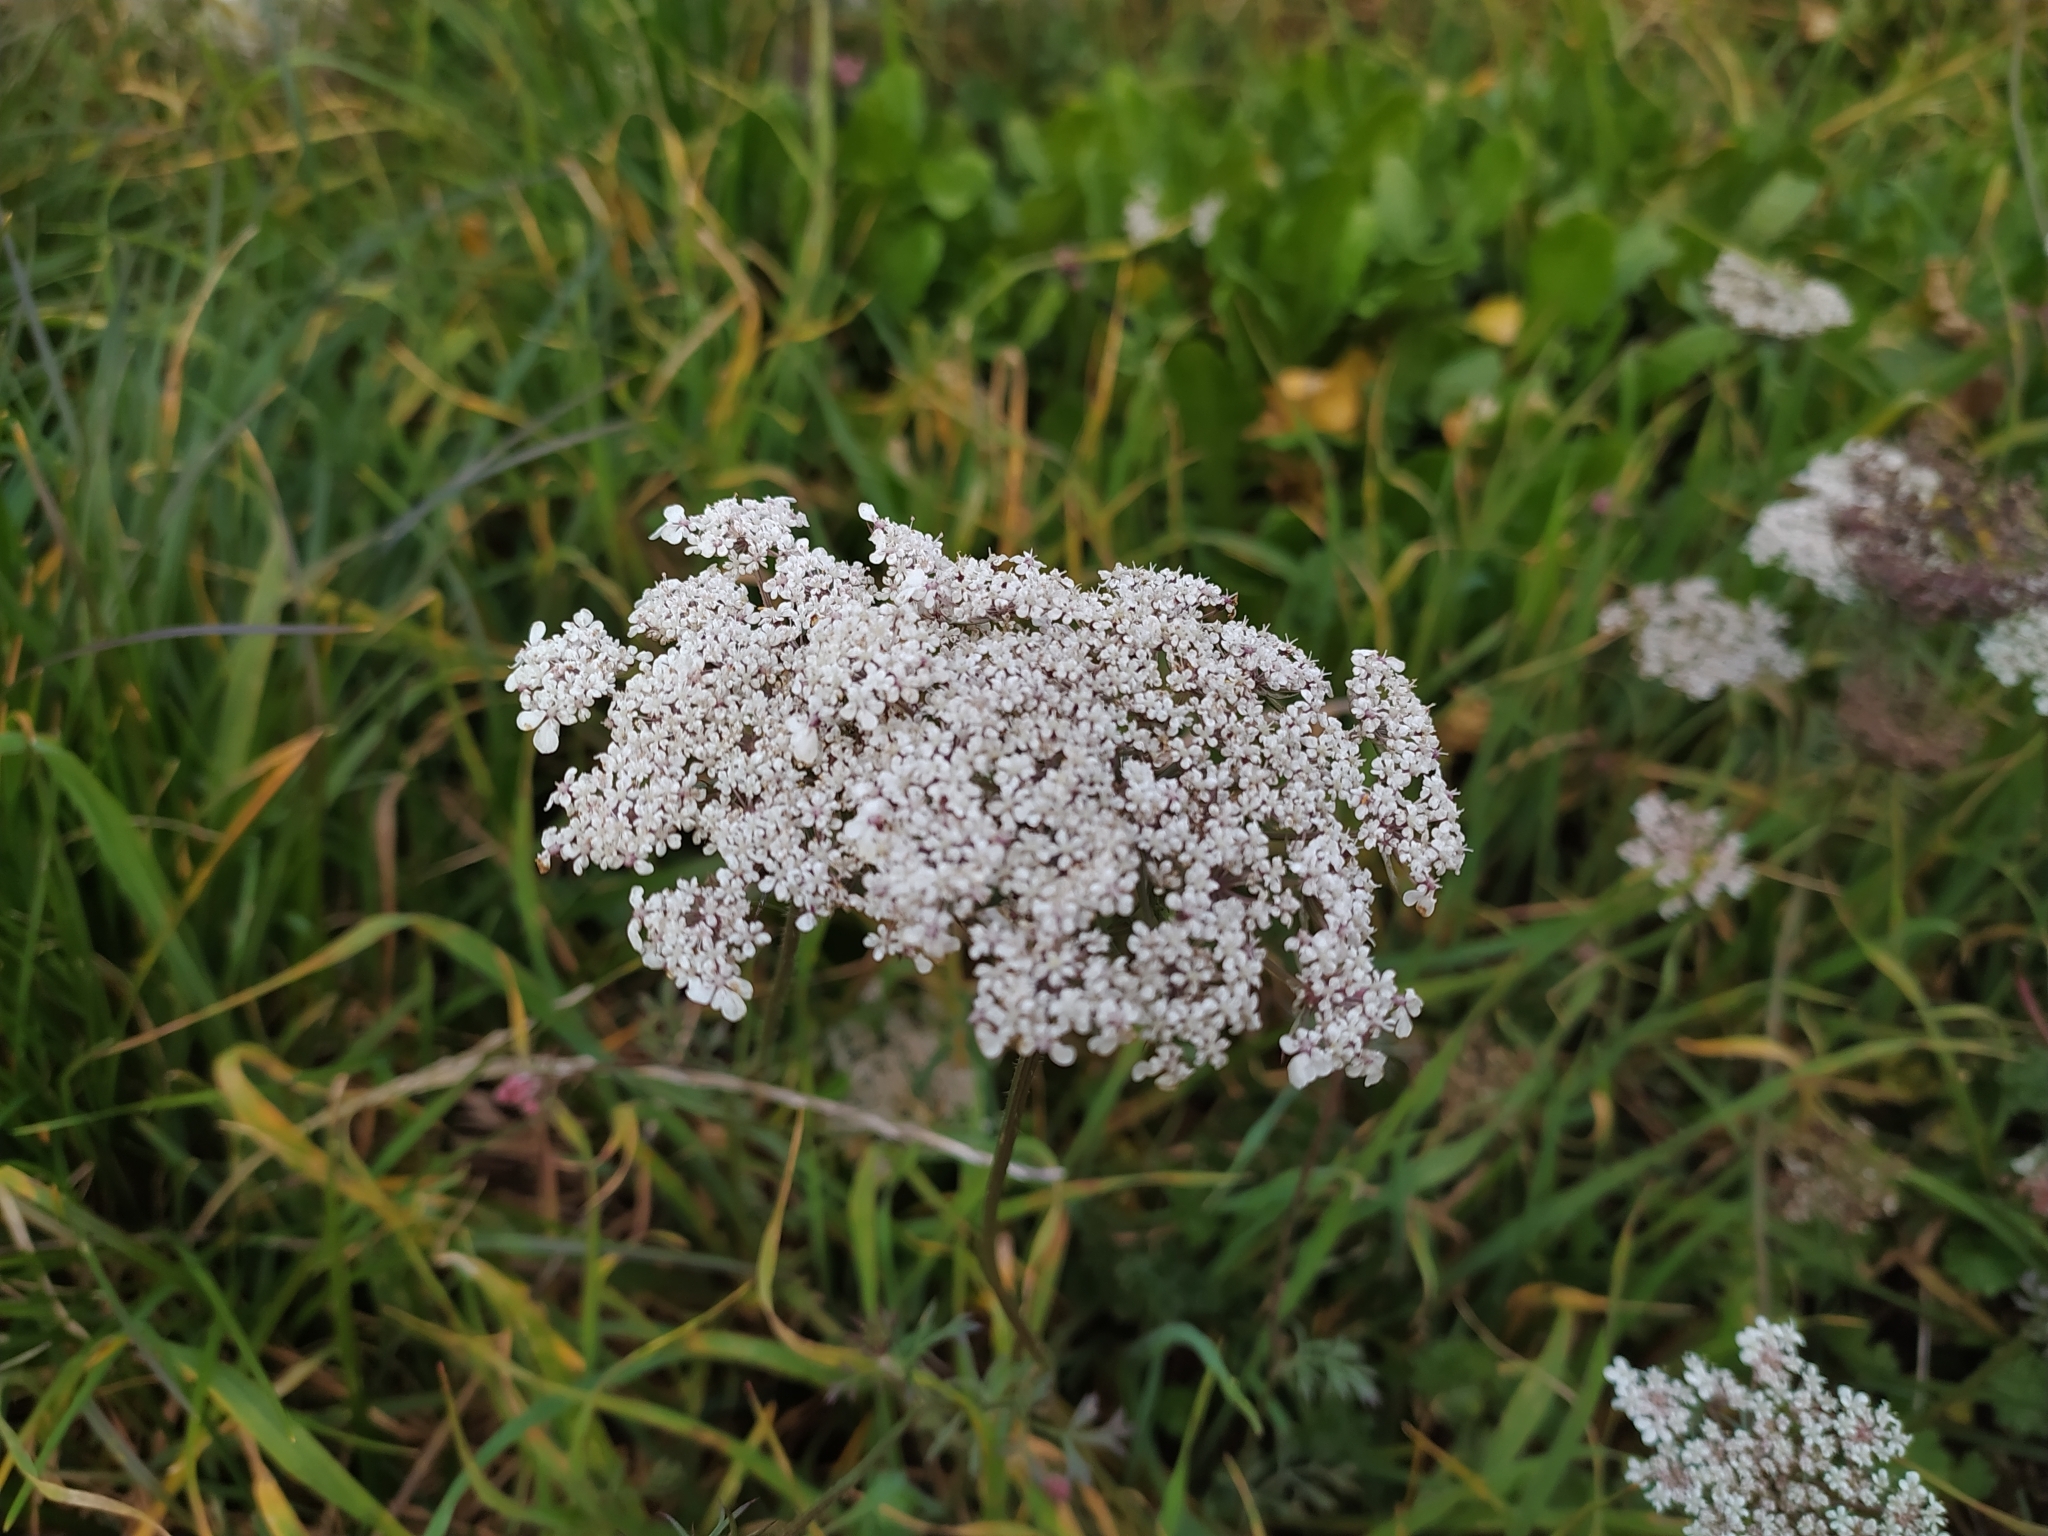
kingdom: Plantae
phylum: Tracheophyta
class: Magnoliopsida
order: Apiales
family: Apiaceae
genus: Daucus
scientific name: Daucus carota
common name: Wild carrot
